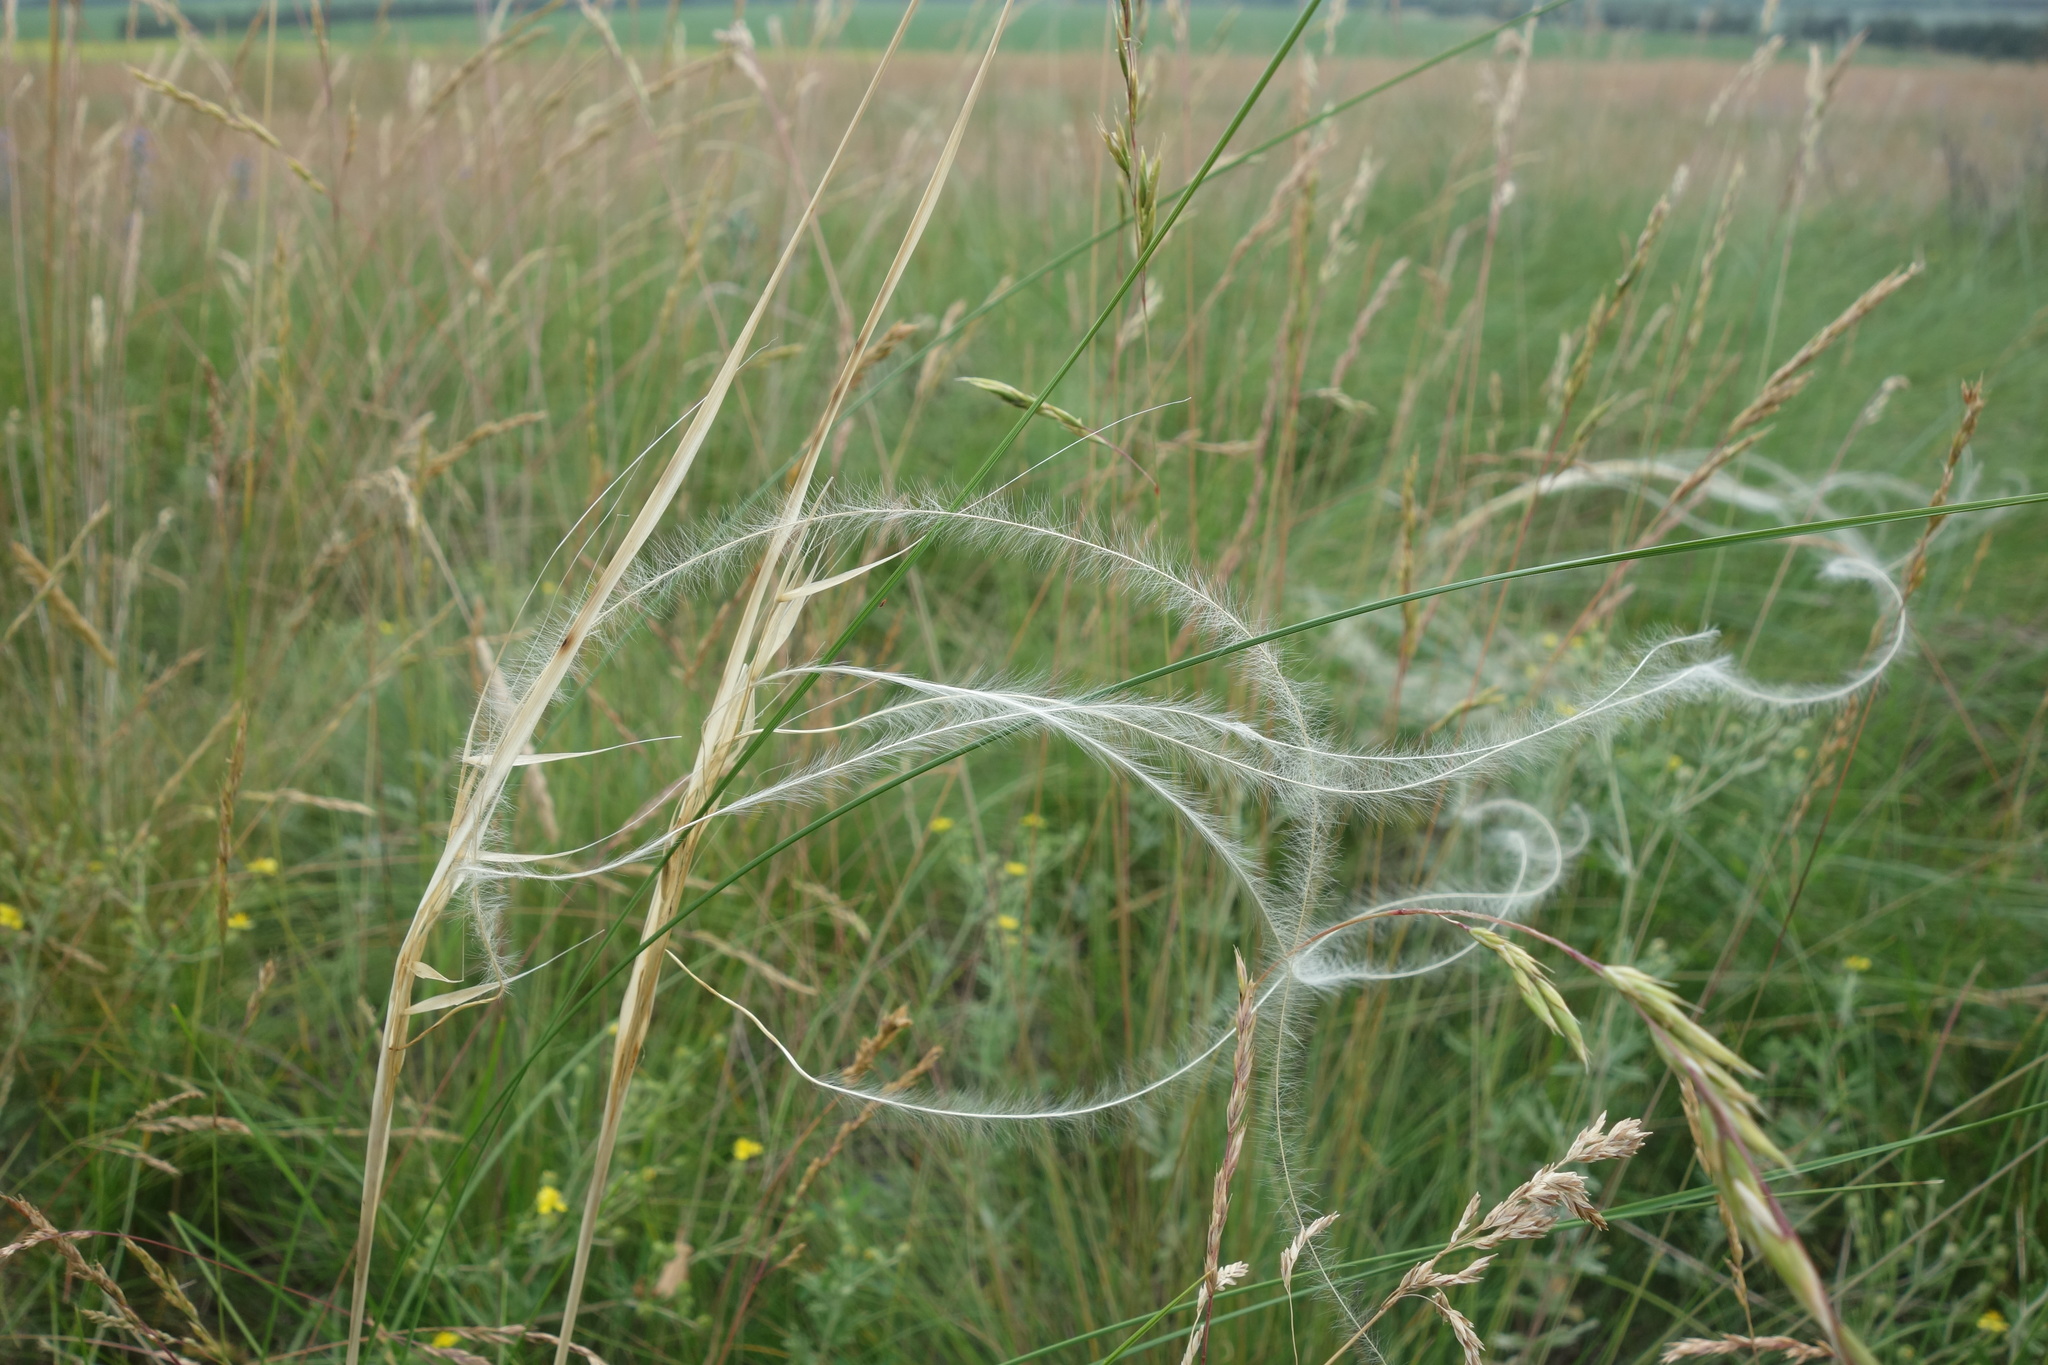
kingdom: Plantae
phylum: Tracheophyta
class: Liliopsida
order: Poales
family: Poaceae
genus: Stipa
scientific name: Stipa pennata
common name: European feather grass
